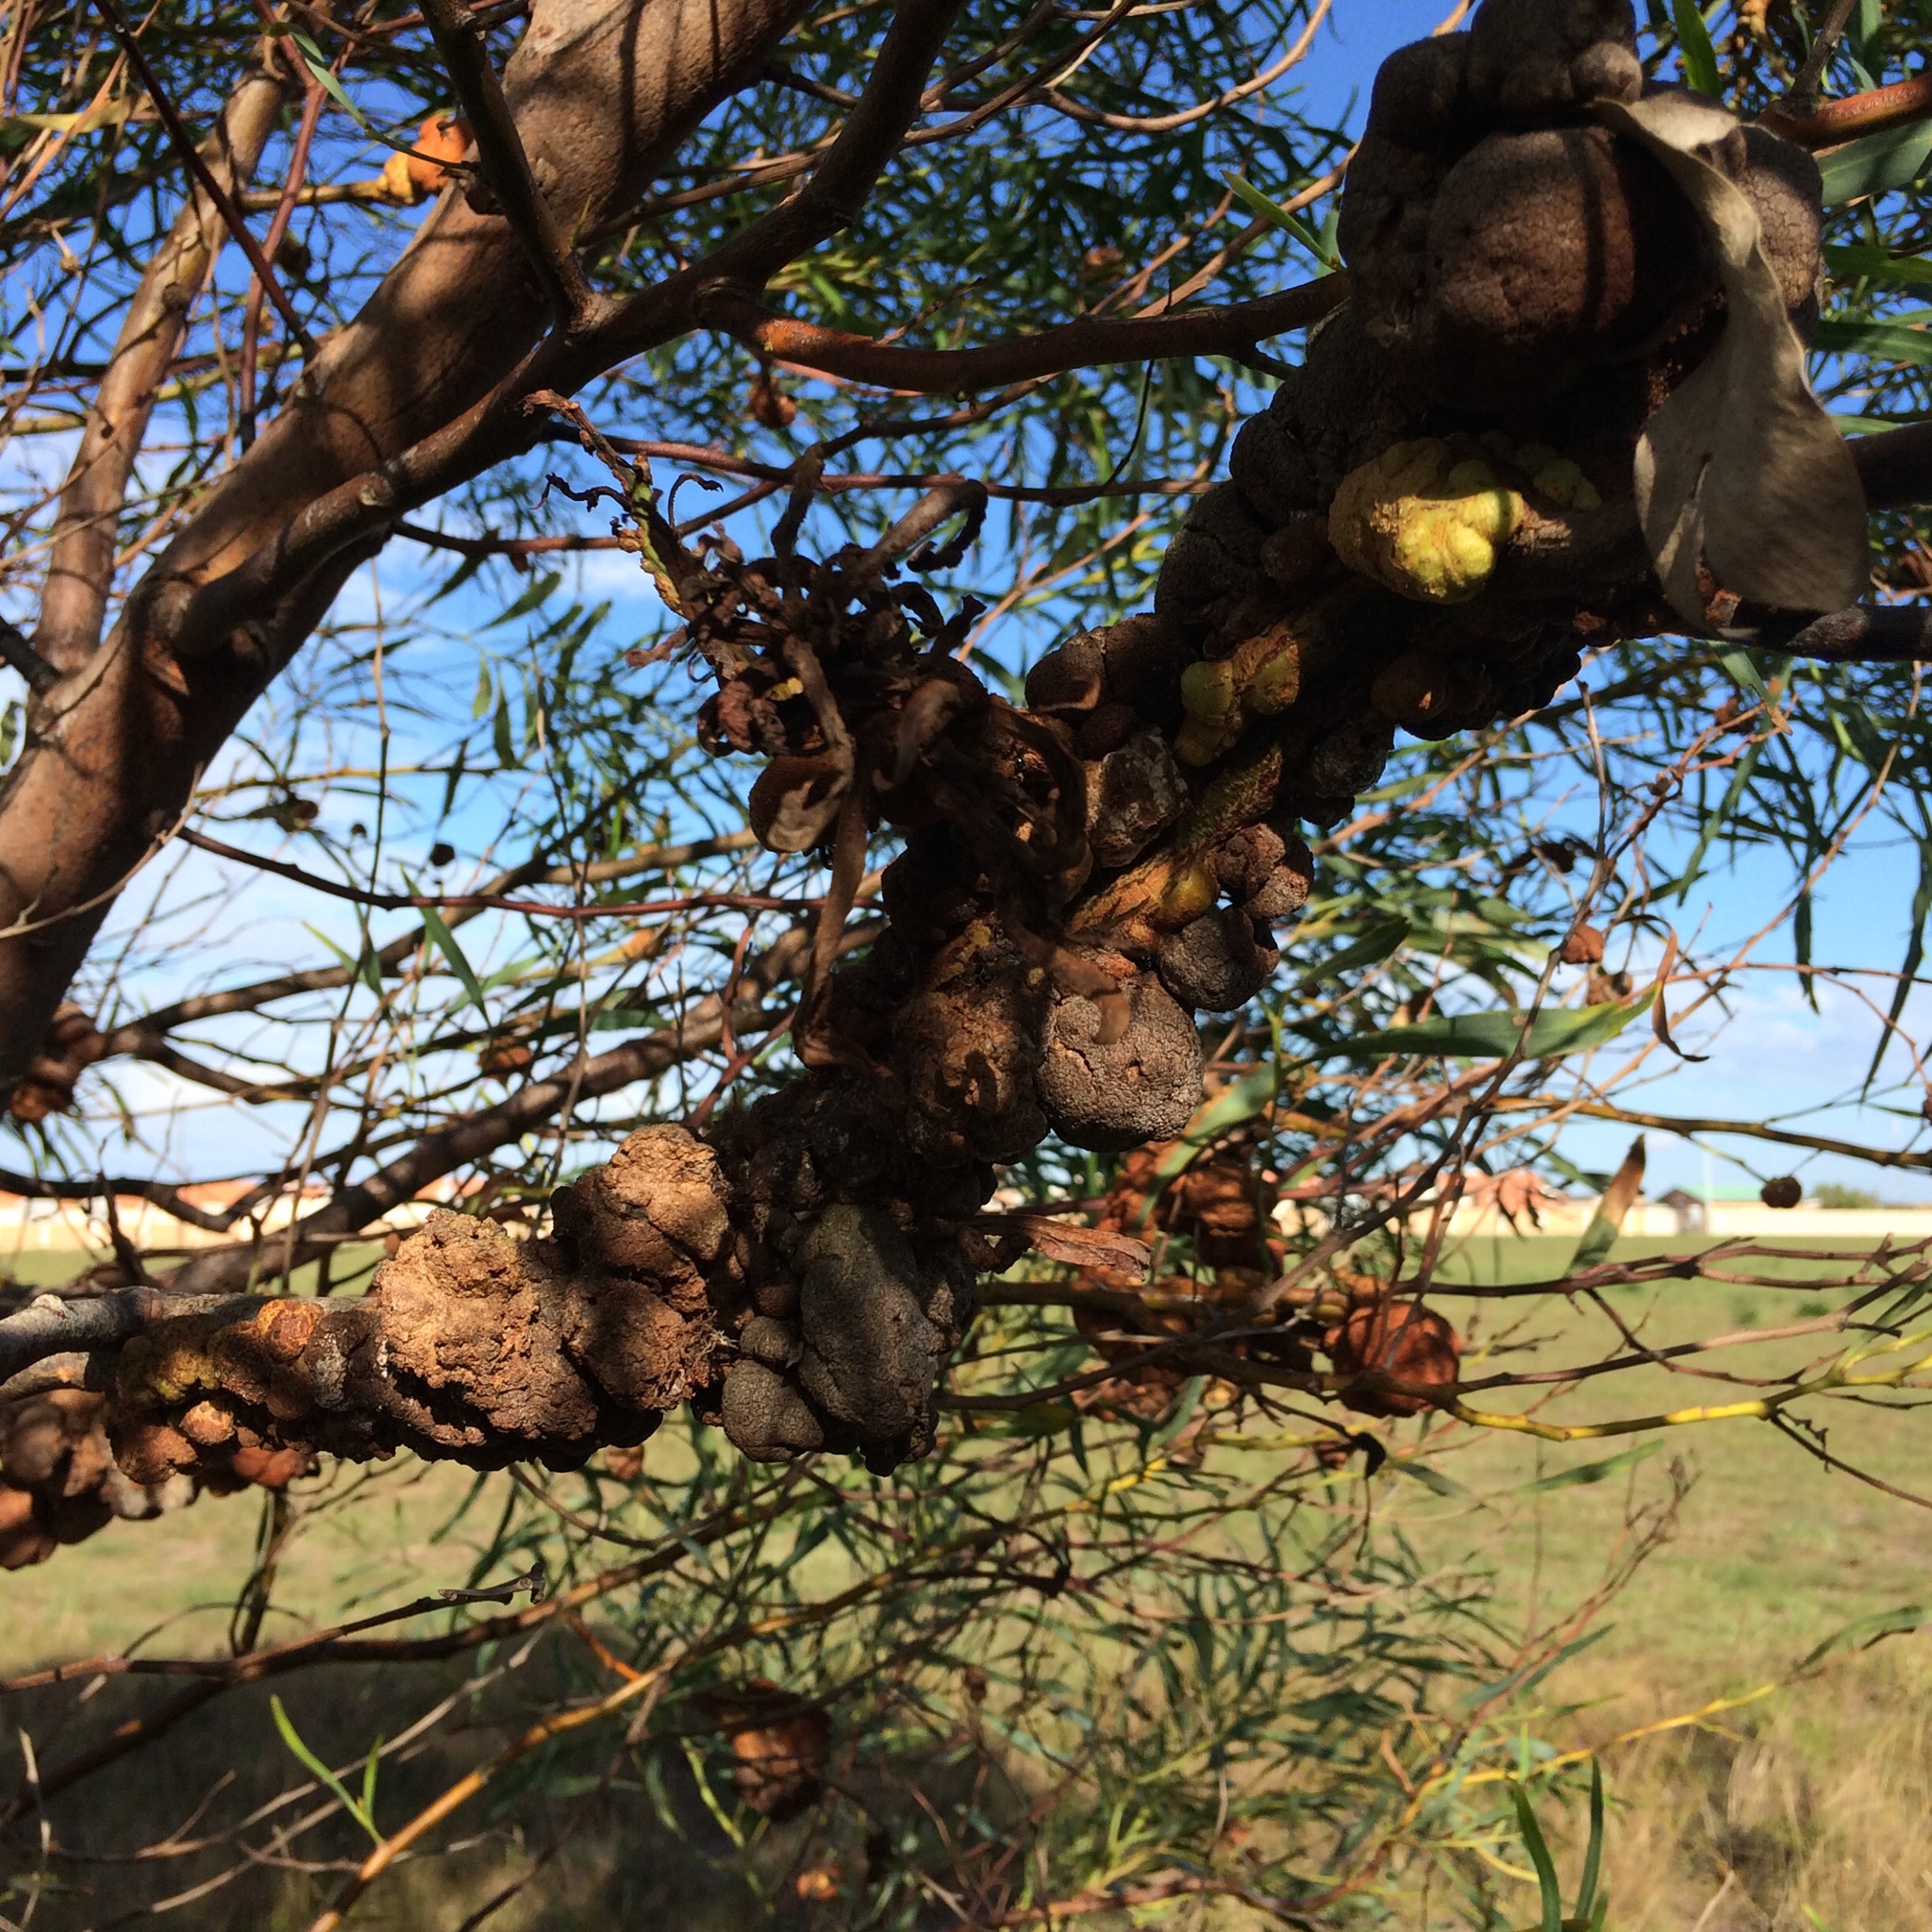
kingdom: Plantae
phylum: Tracheophyta
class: Magnoliopsida
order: Fabales
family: Fabaceae
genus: Acacia
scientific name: Acacia saligna
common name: Orange wattle
